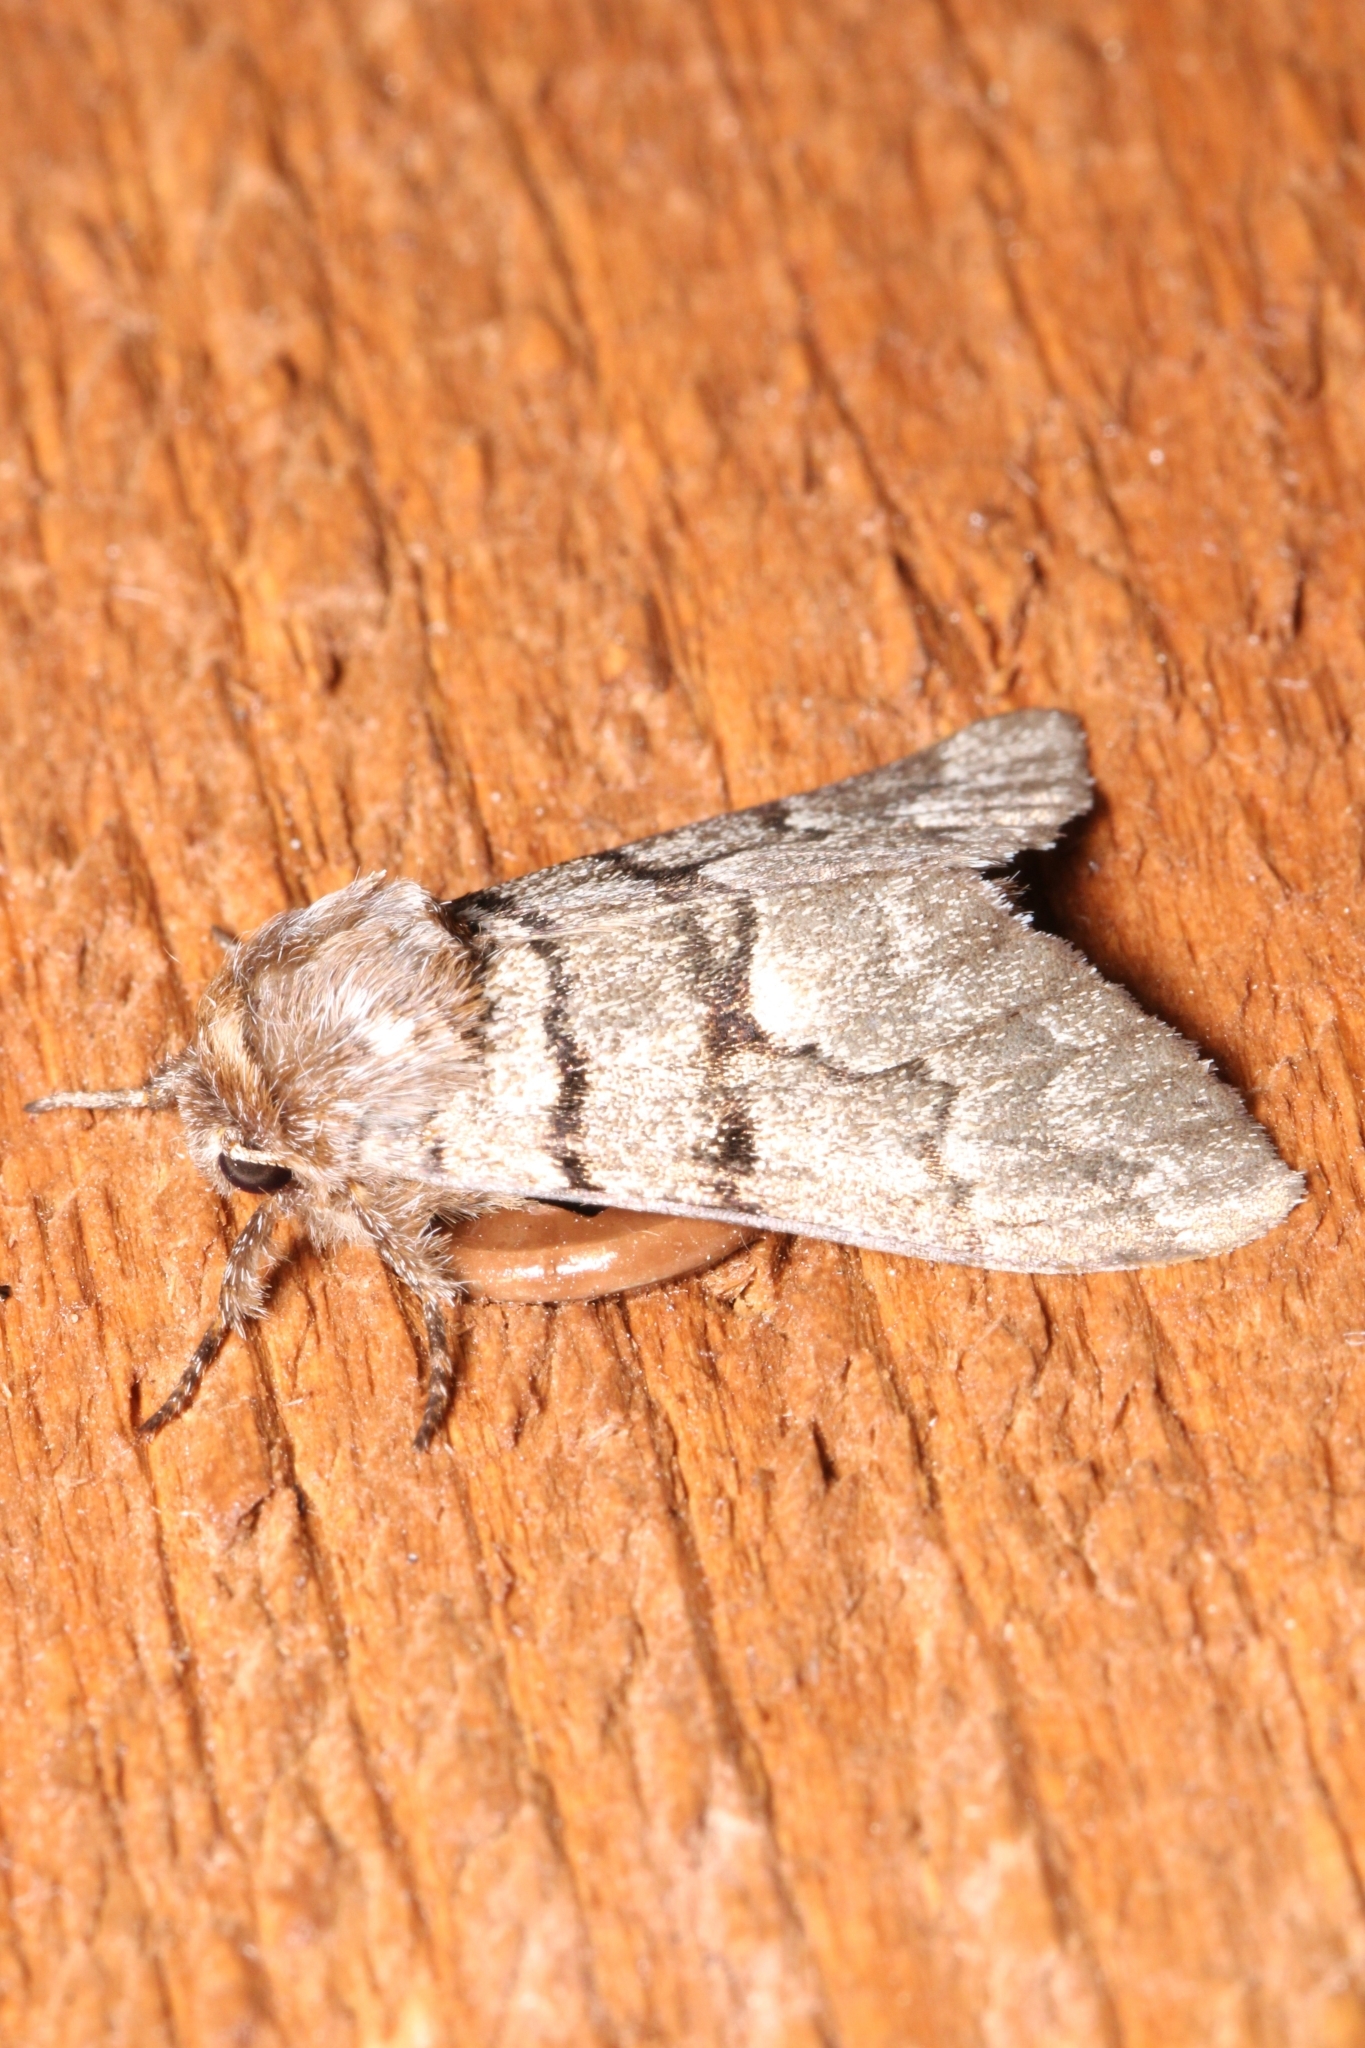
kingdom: Animalia
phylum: Arthropoda
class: Insecta
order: Lepidoptera
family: Noctuidae
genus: Panthea
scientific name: Panthea furcilla
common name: Eastern panthea moth
